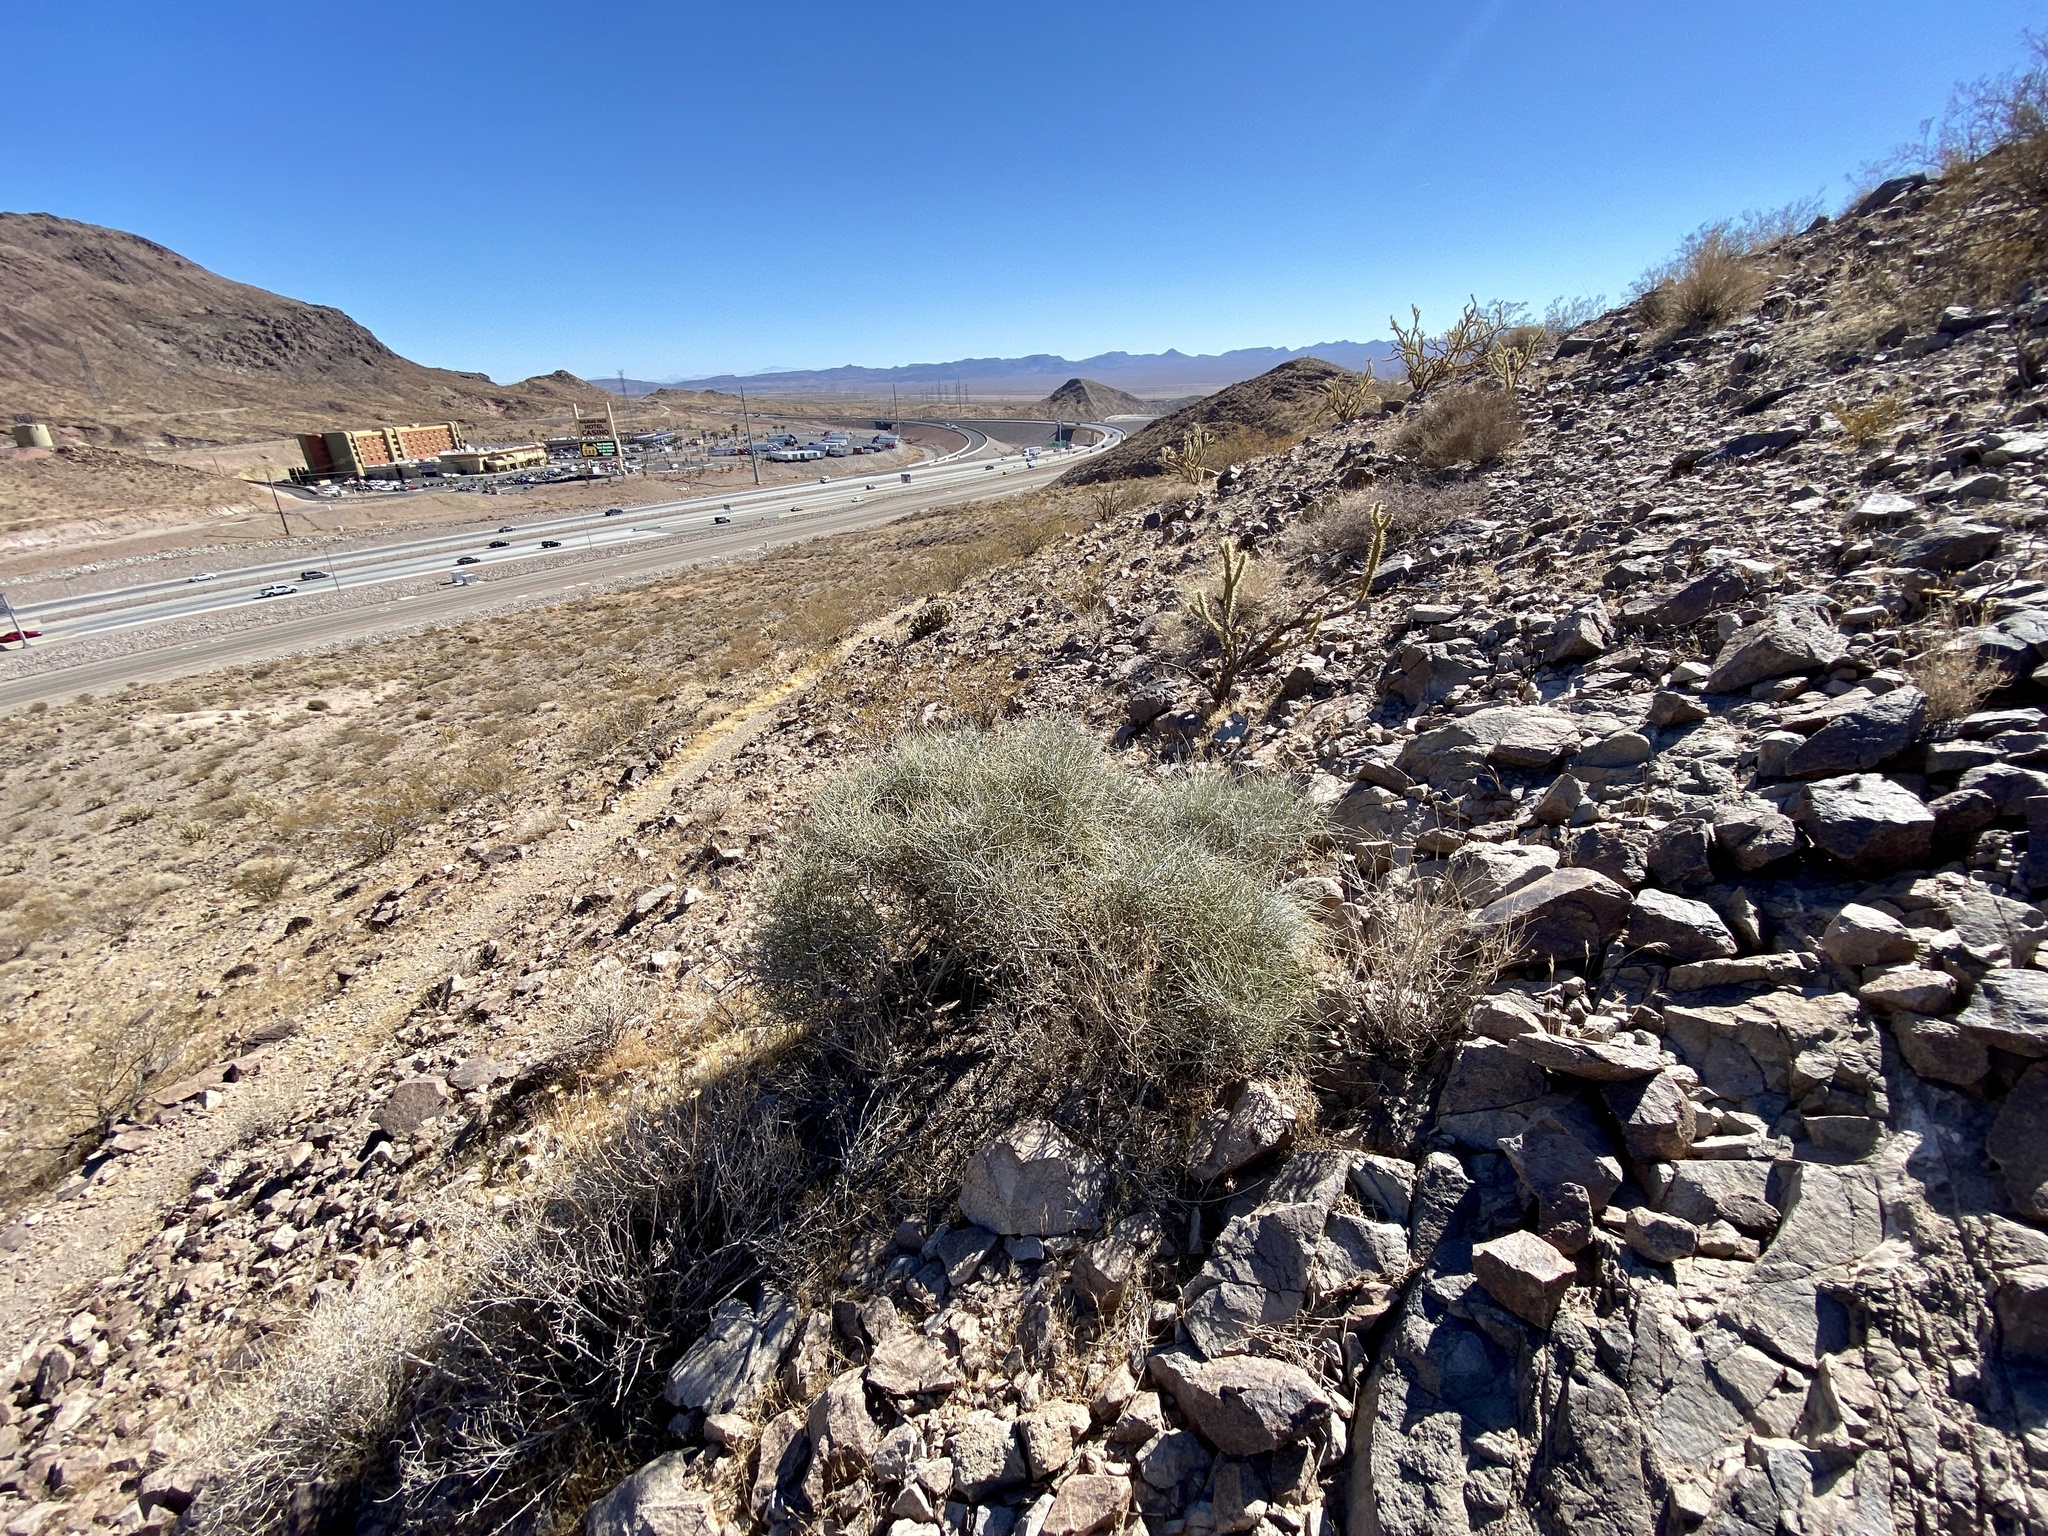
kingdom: Plantae
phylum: Tracheophyta
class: Gnetopsida
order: Ephedrales
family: Ephedraceae
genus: Ephedra
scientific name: Ephedra nevadensis
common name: Gray ephedra
